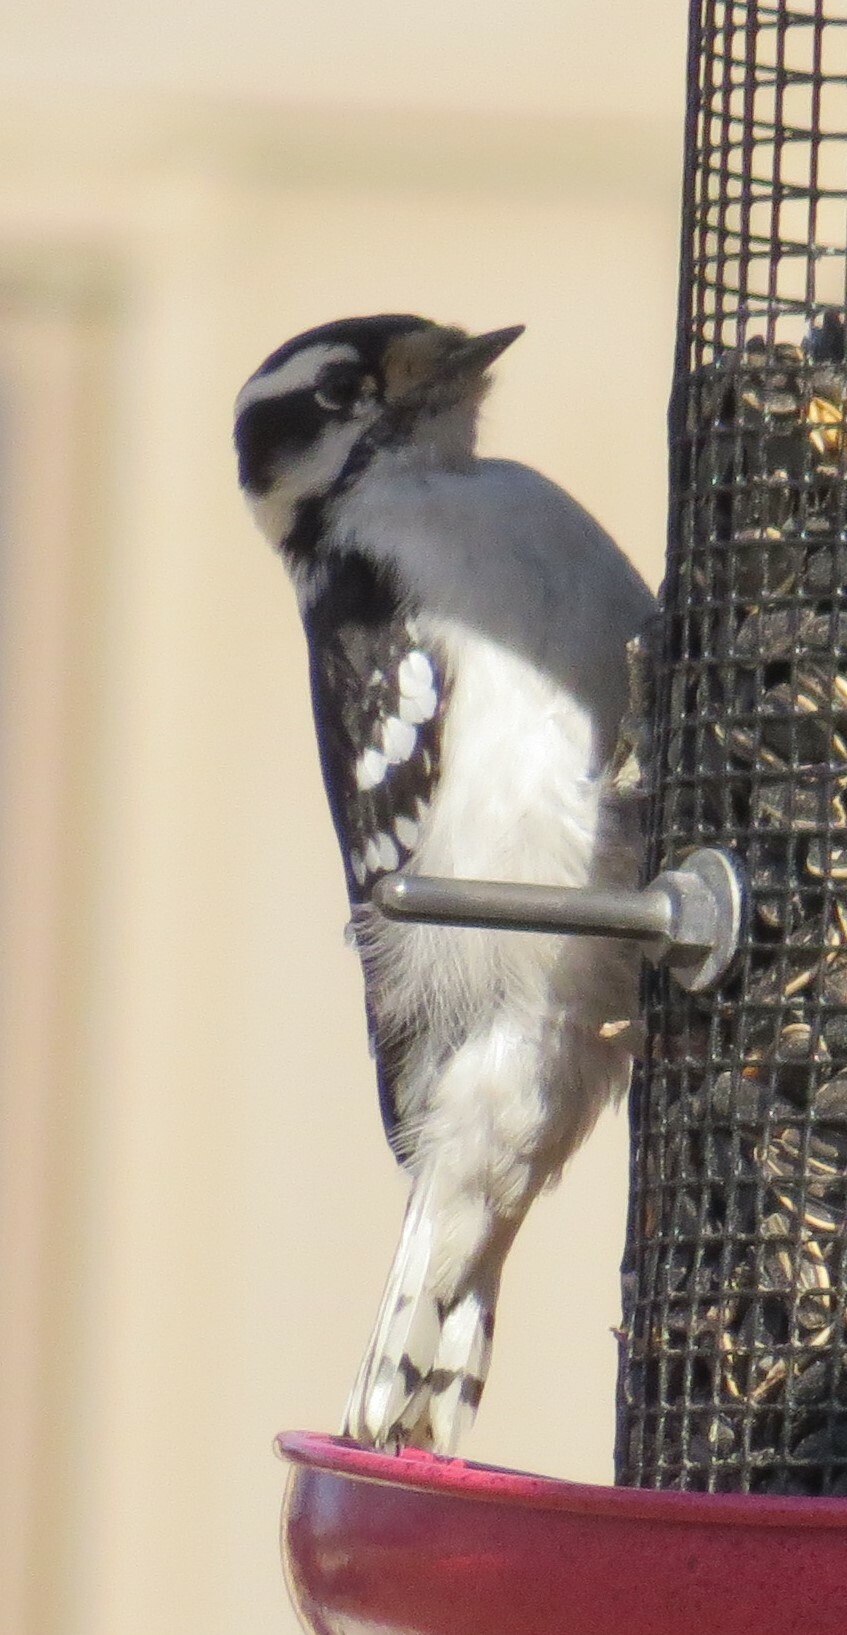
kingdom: Animalia
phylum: Chordata
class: Aves
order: Piciformes
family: Picidae
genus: Dryobates
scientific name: Dryobates pubescens
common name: Downy woodpecker
